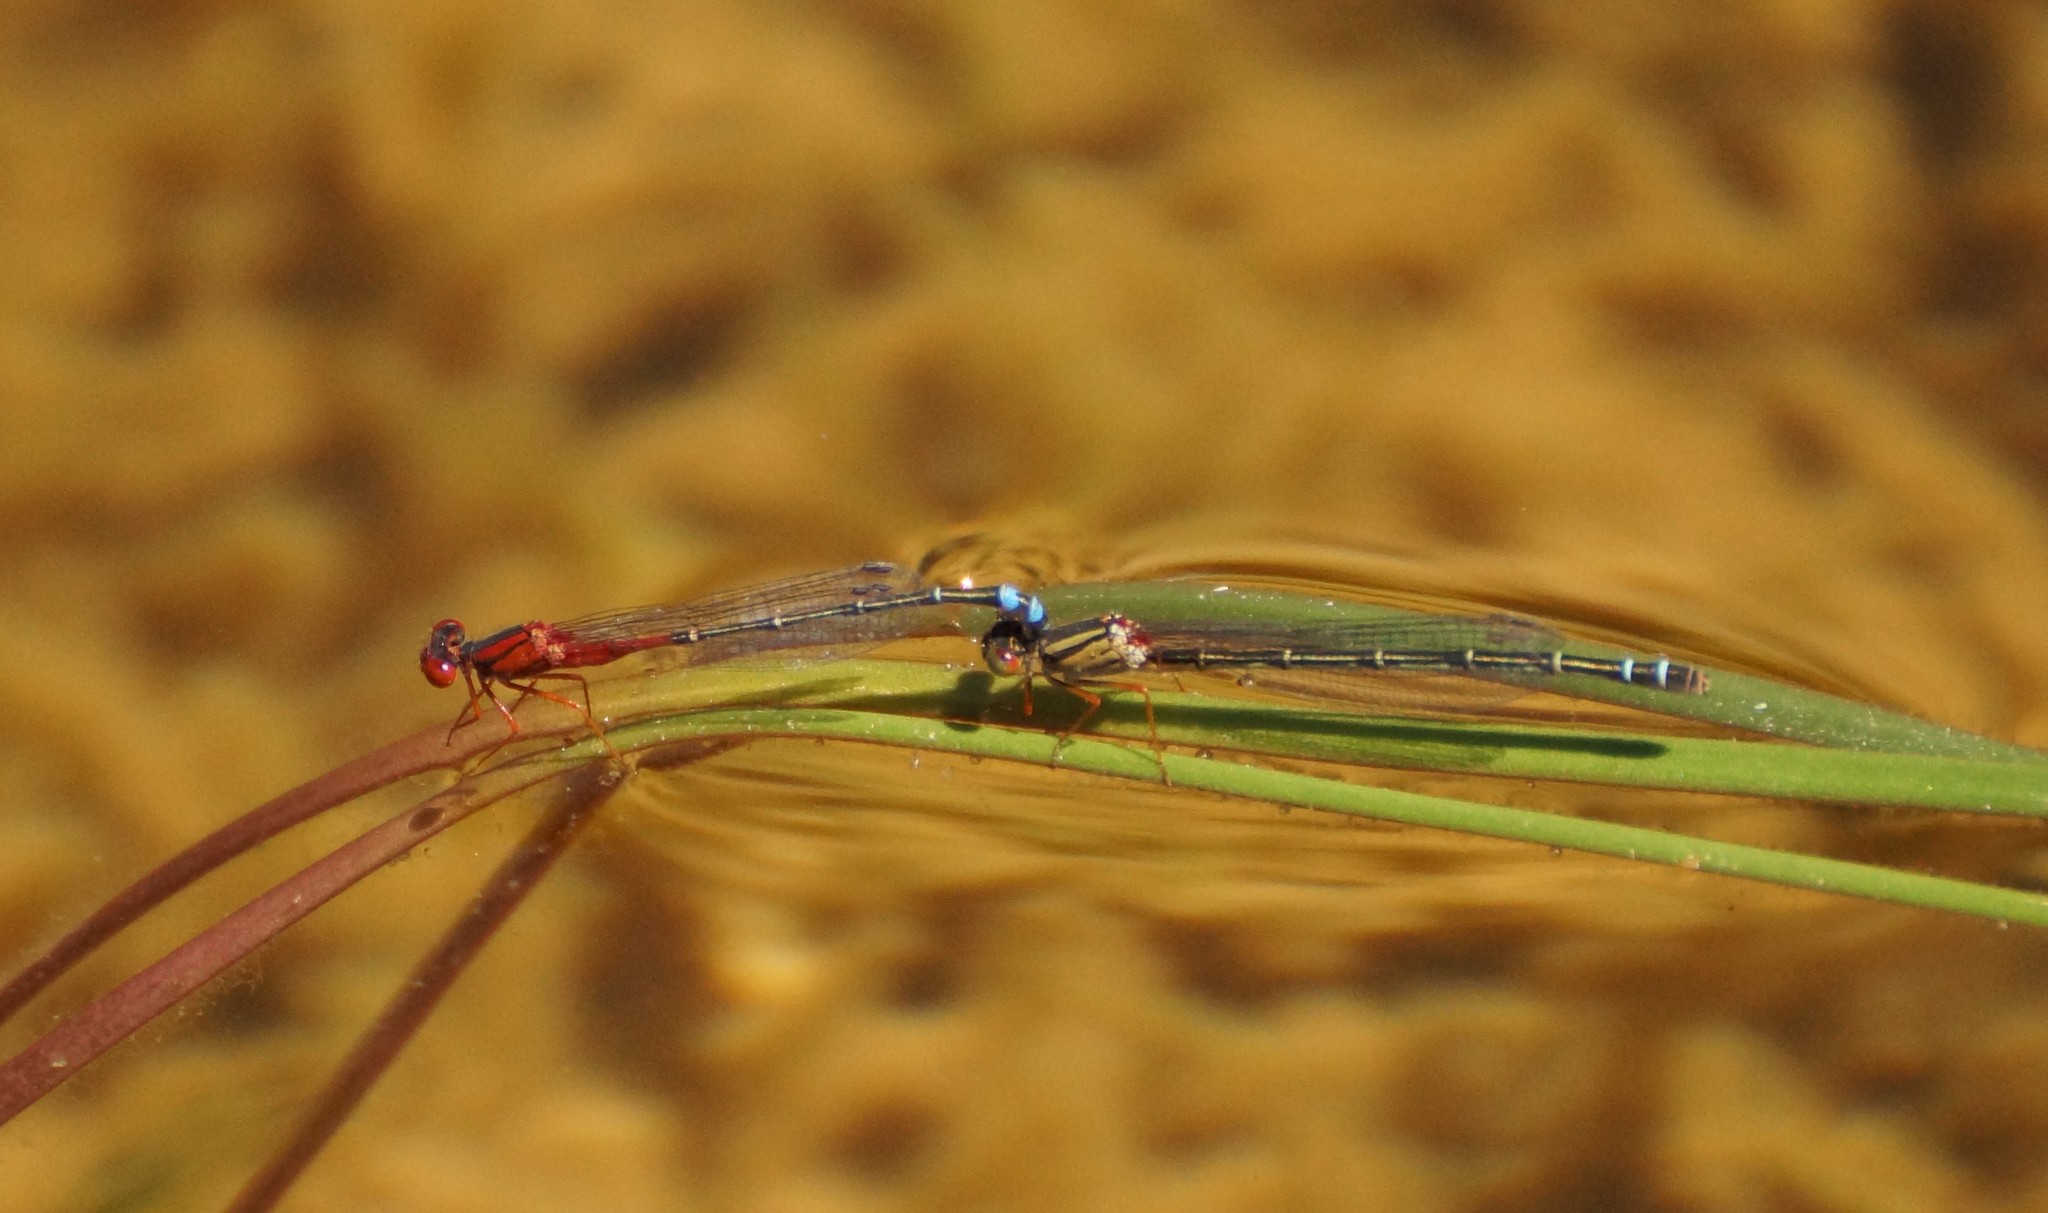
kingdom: Animalia
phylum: Arthropoda
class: Insecta
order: Odonata
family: Coenagrionidae
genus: Xanthagrion
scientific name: Xanthagrion erythroneurum
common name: Red and blue damsel
